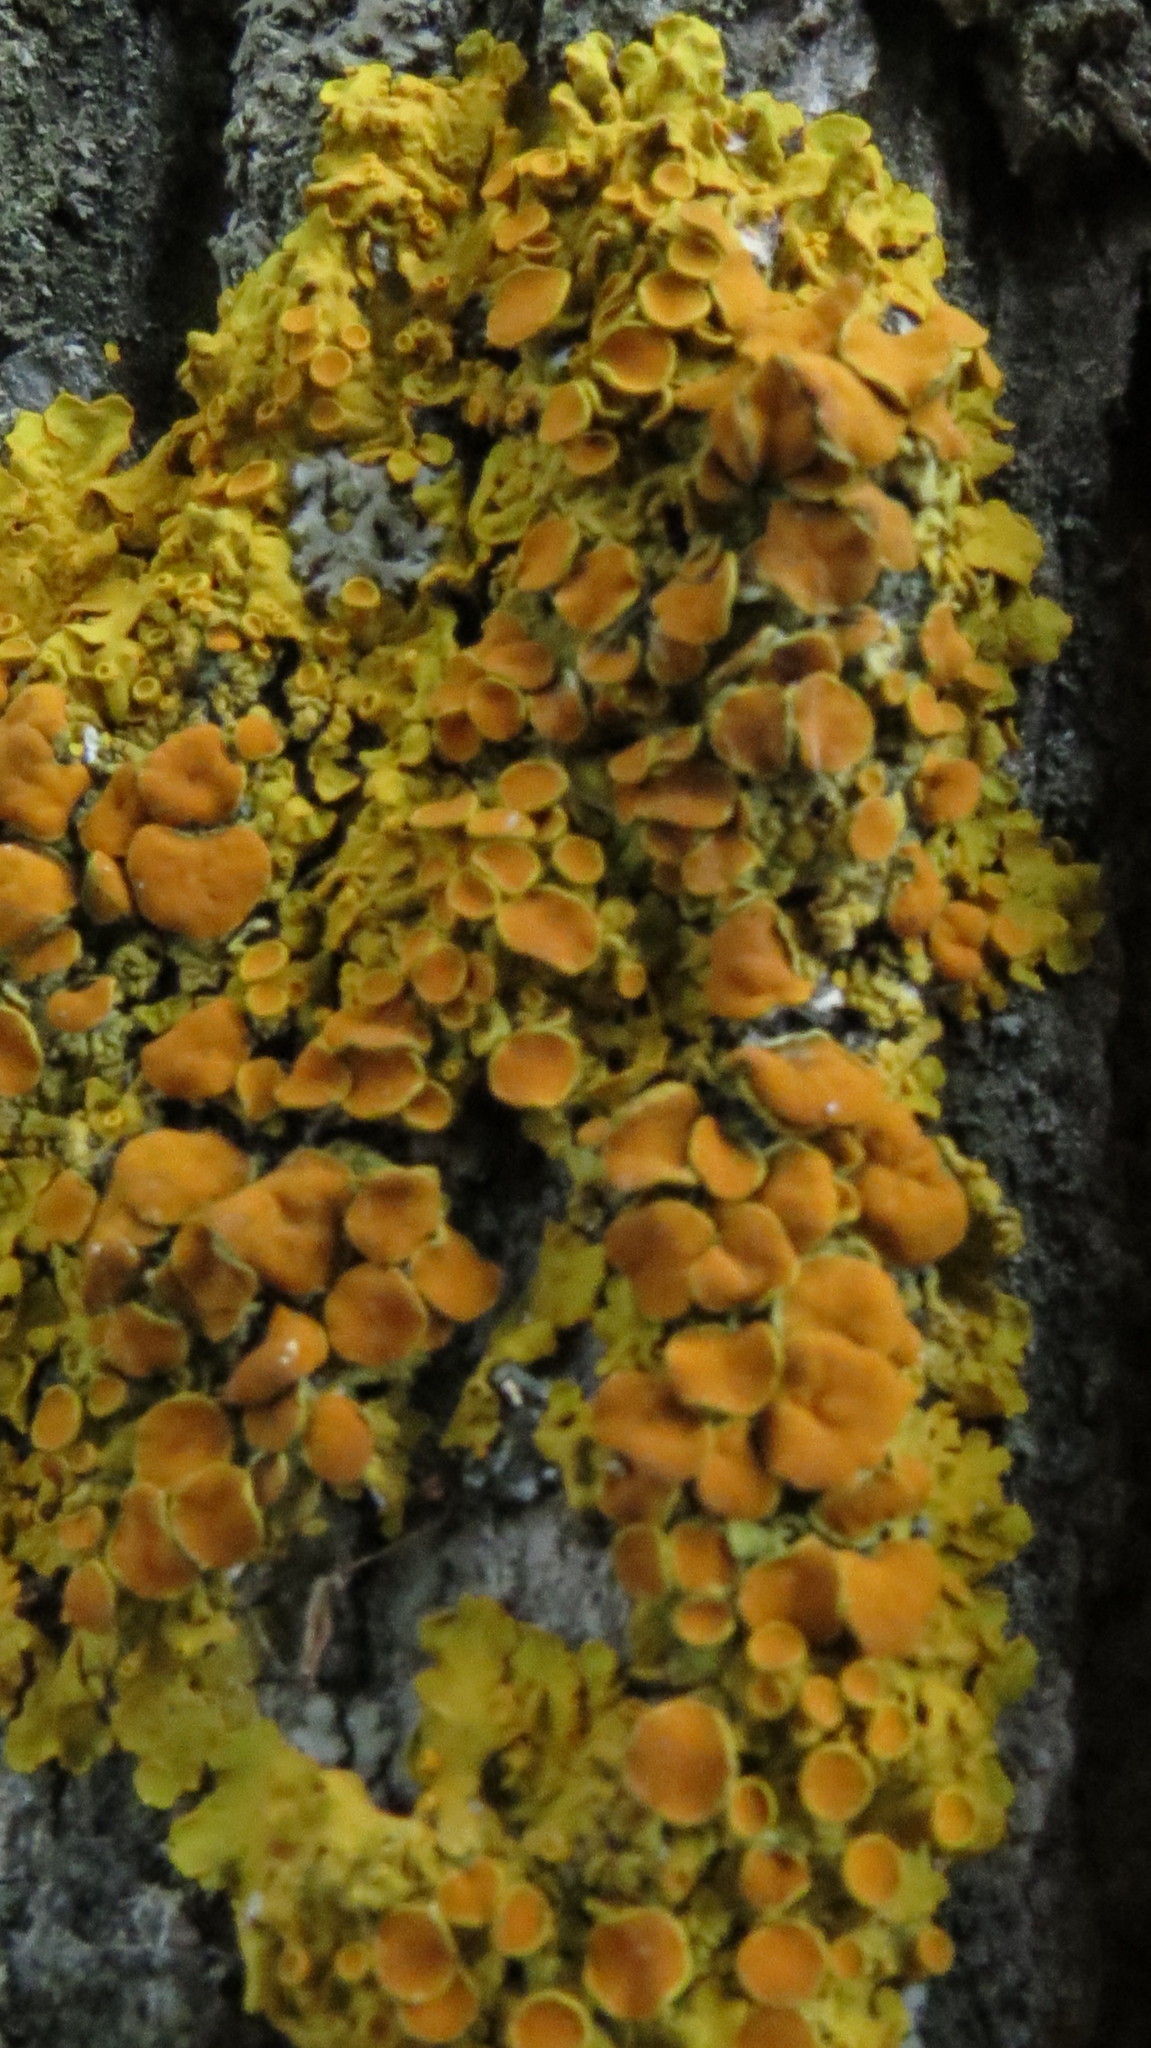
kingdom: Fungi
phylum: Ascomycota
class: Lecanoromycetes
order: Teloschistales
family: Teloschistaceae
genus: Xanthoria
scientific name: Xanthoria parietina
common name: Common orange lichen
